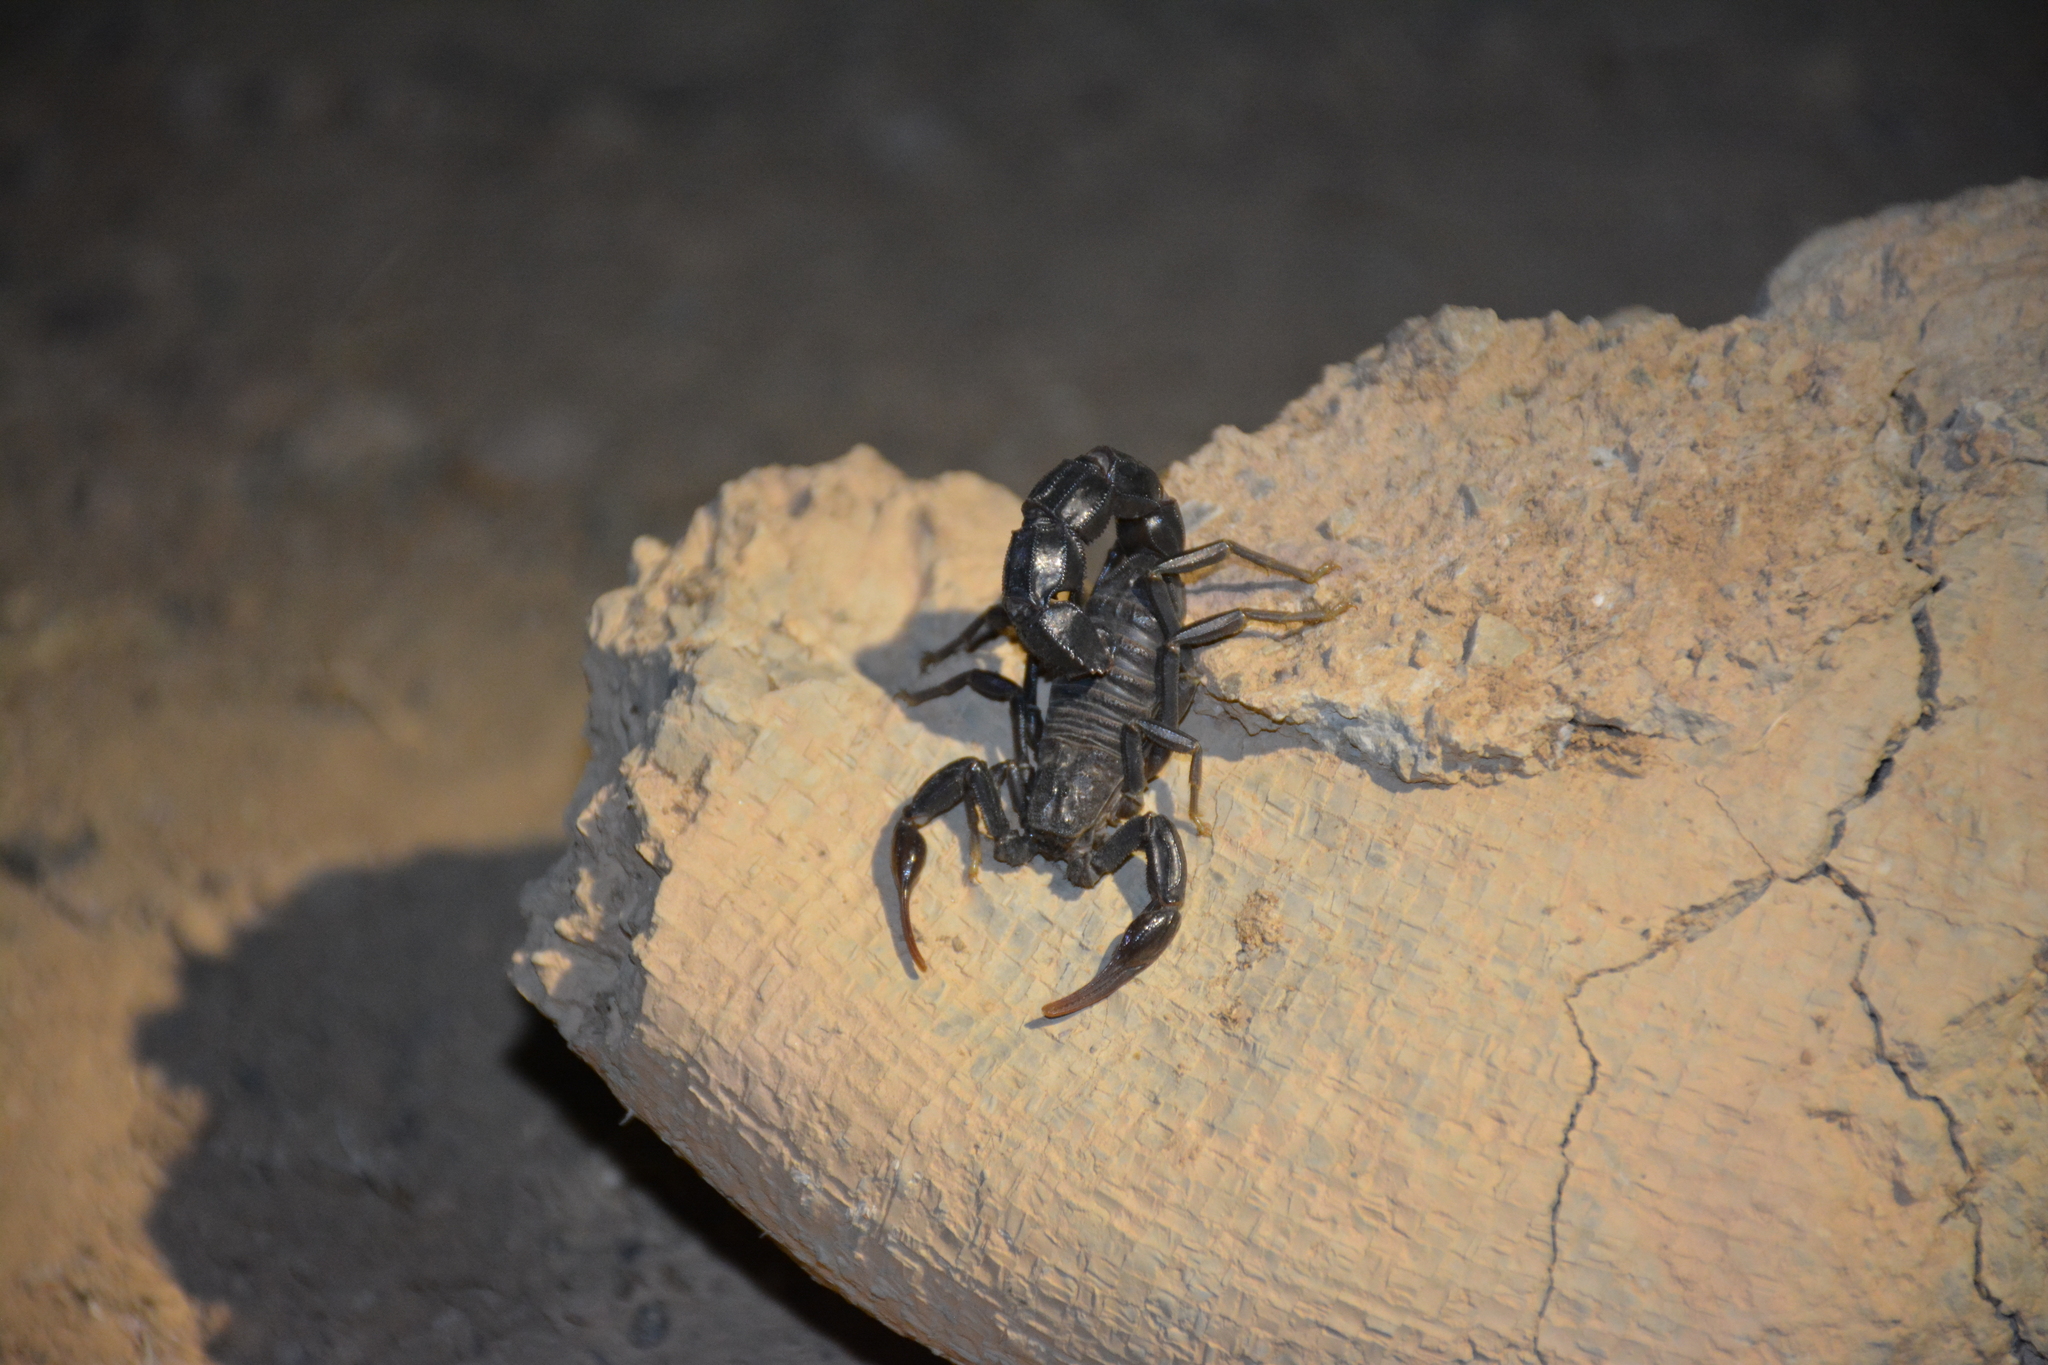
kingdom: Animalia
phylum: Arthropoda
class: Arachnida
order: Scorpiones
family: Buthidae
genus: Androctonus
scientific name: Androctonus crassicauda
